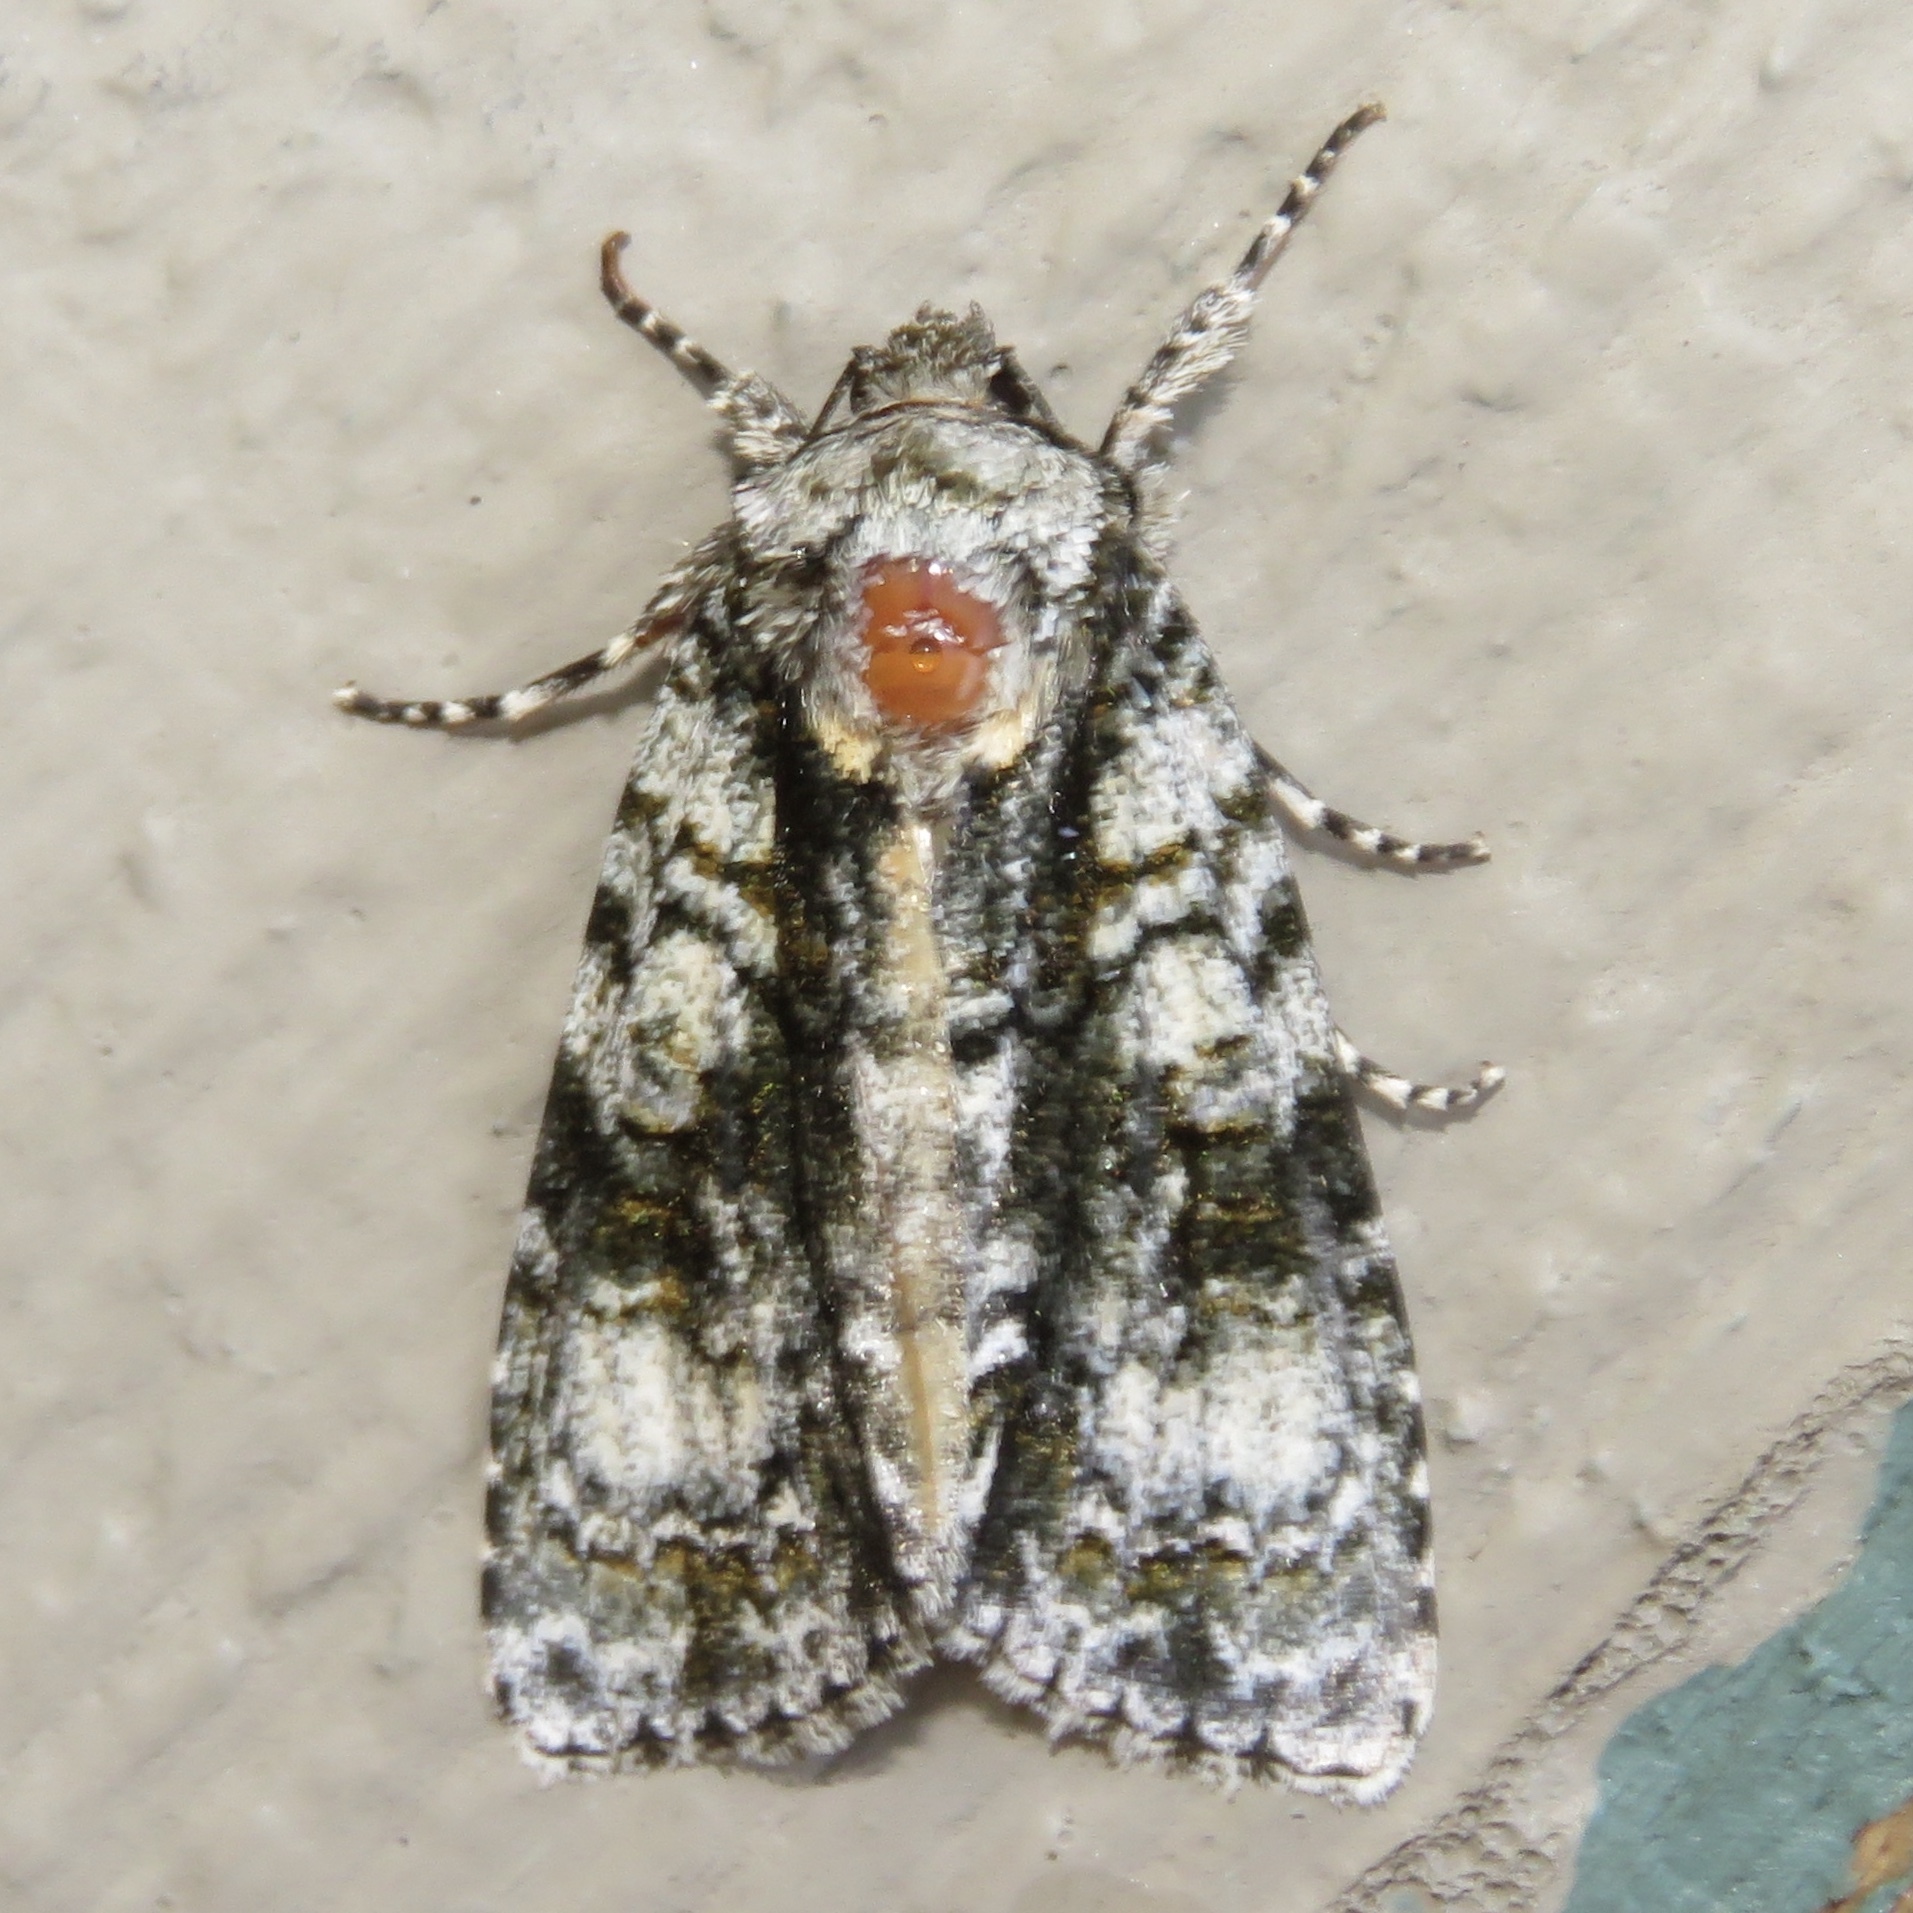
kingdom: Animalia
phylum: Arthropoda
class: Insecta
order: Lepidoptera
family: Noctuidae
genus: Acronicta
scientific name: Acronicta superans
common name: Splendid dagger
